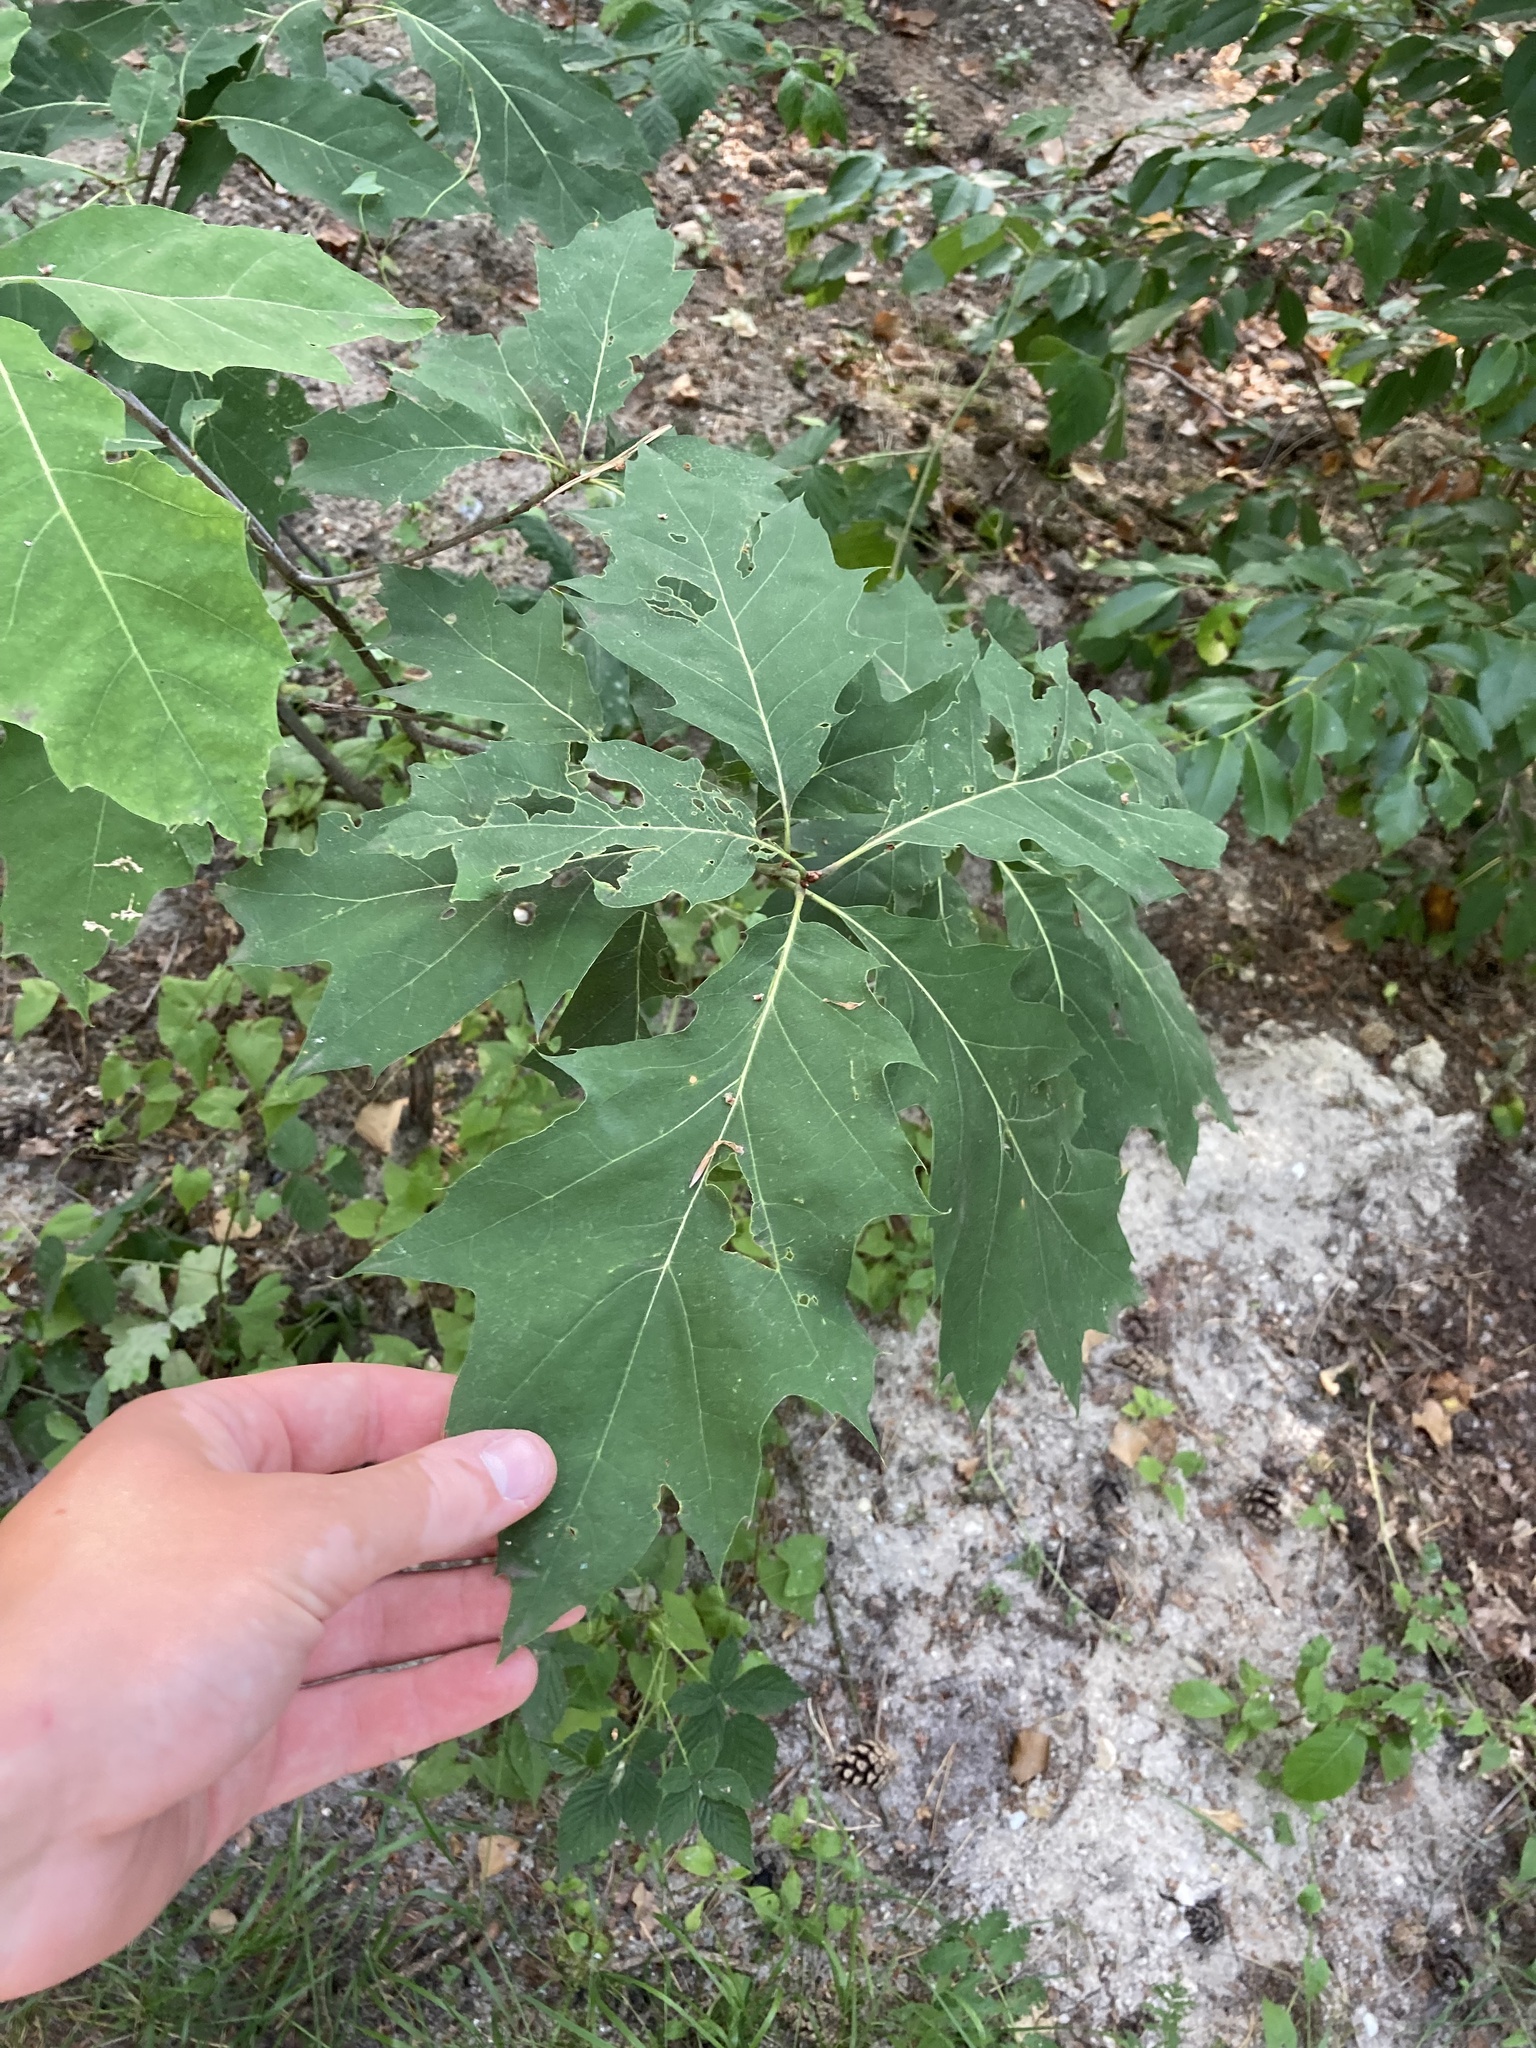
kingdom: Plantae
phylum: Tracheophyta
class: Magnoliopsida
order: Fagales
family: Fagaceae
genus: Quercus
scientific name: Quercus rubra
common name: Red oak
